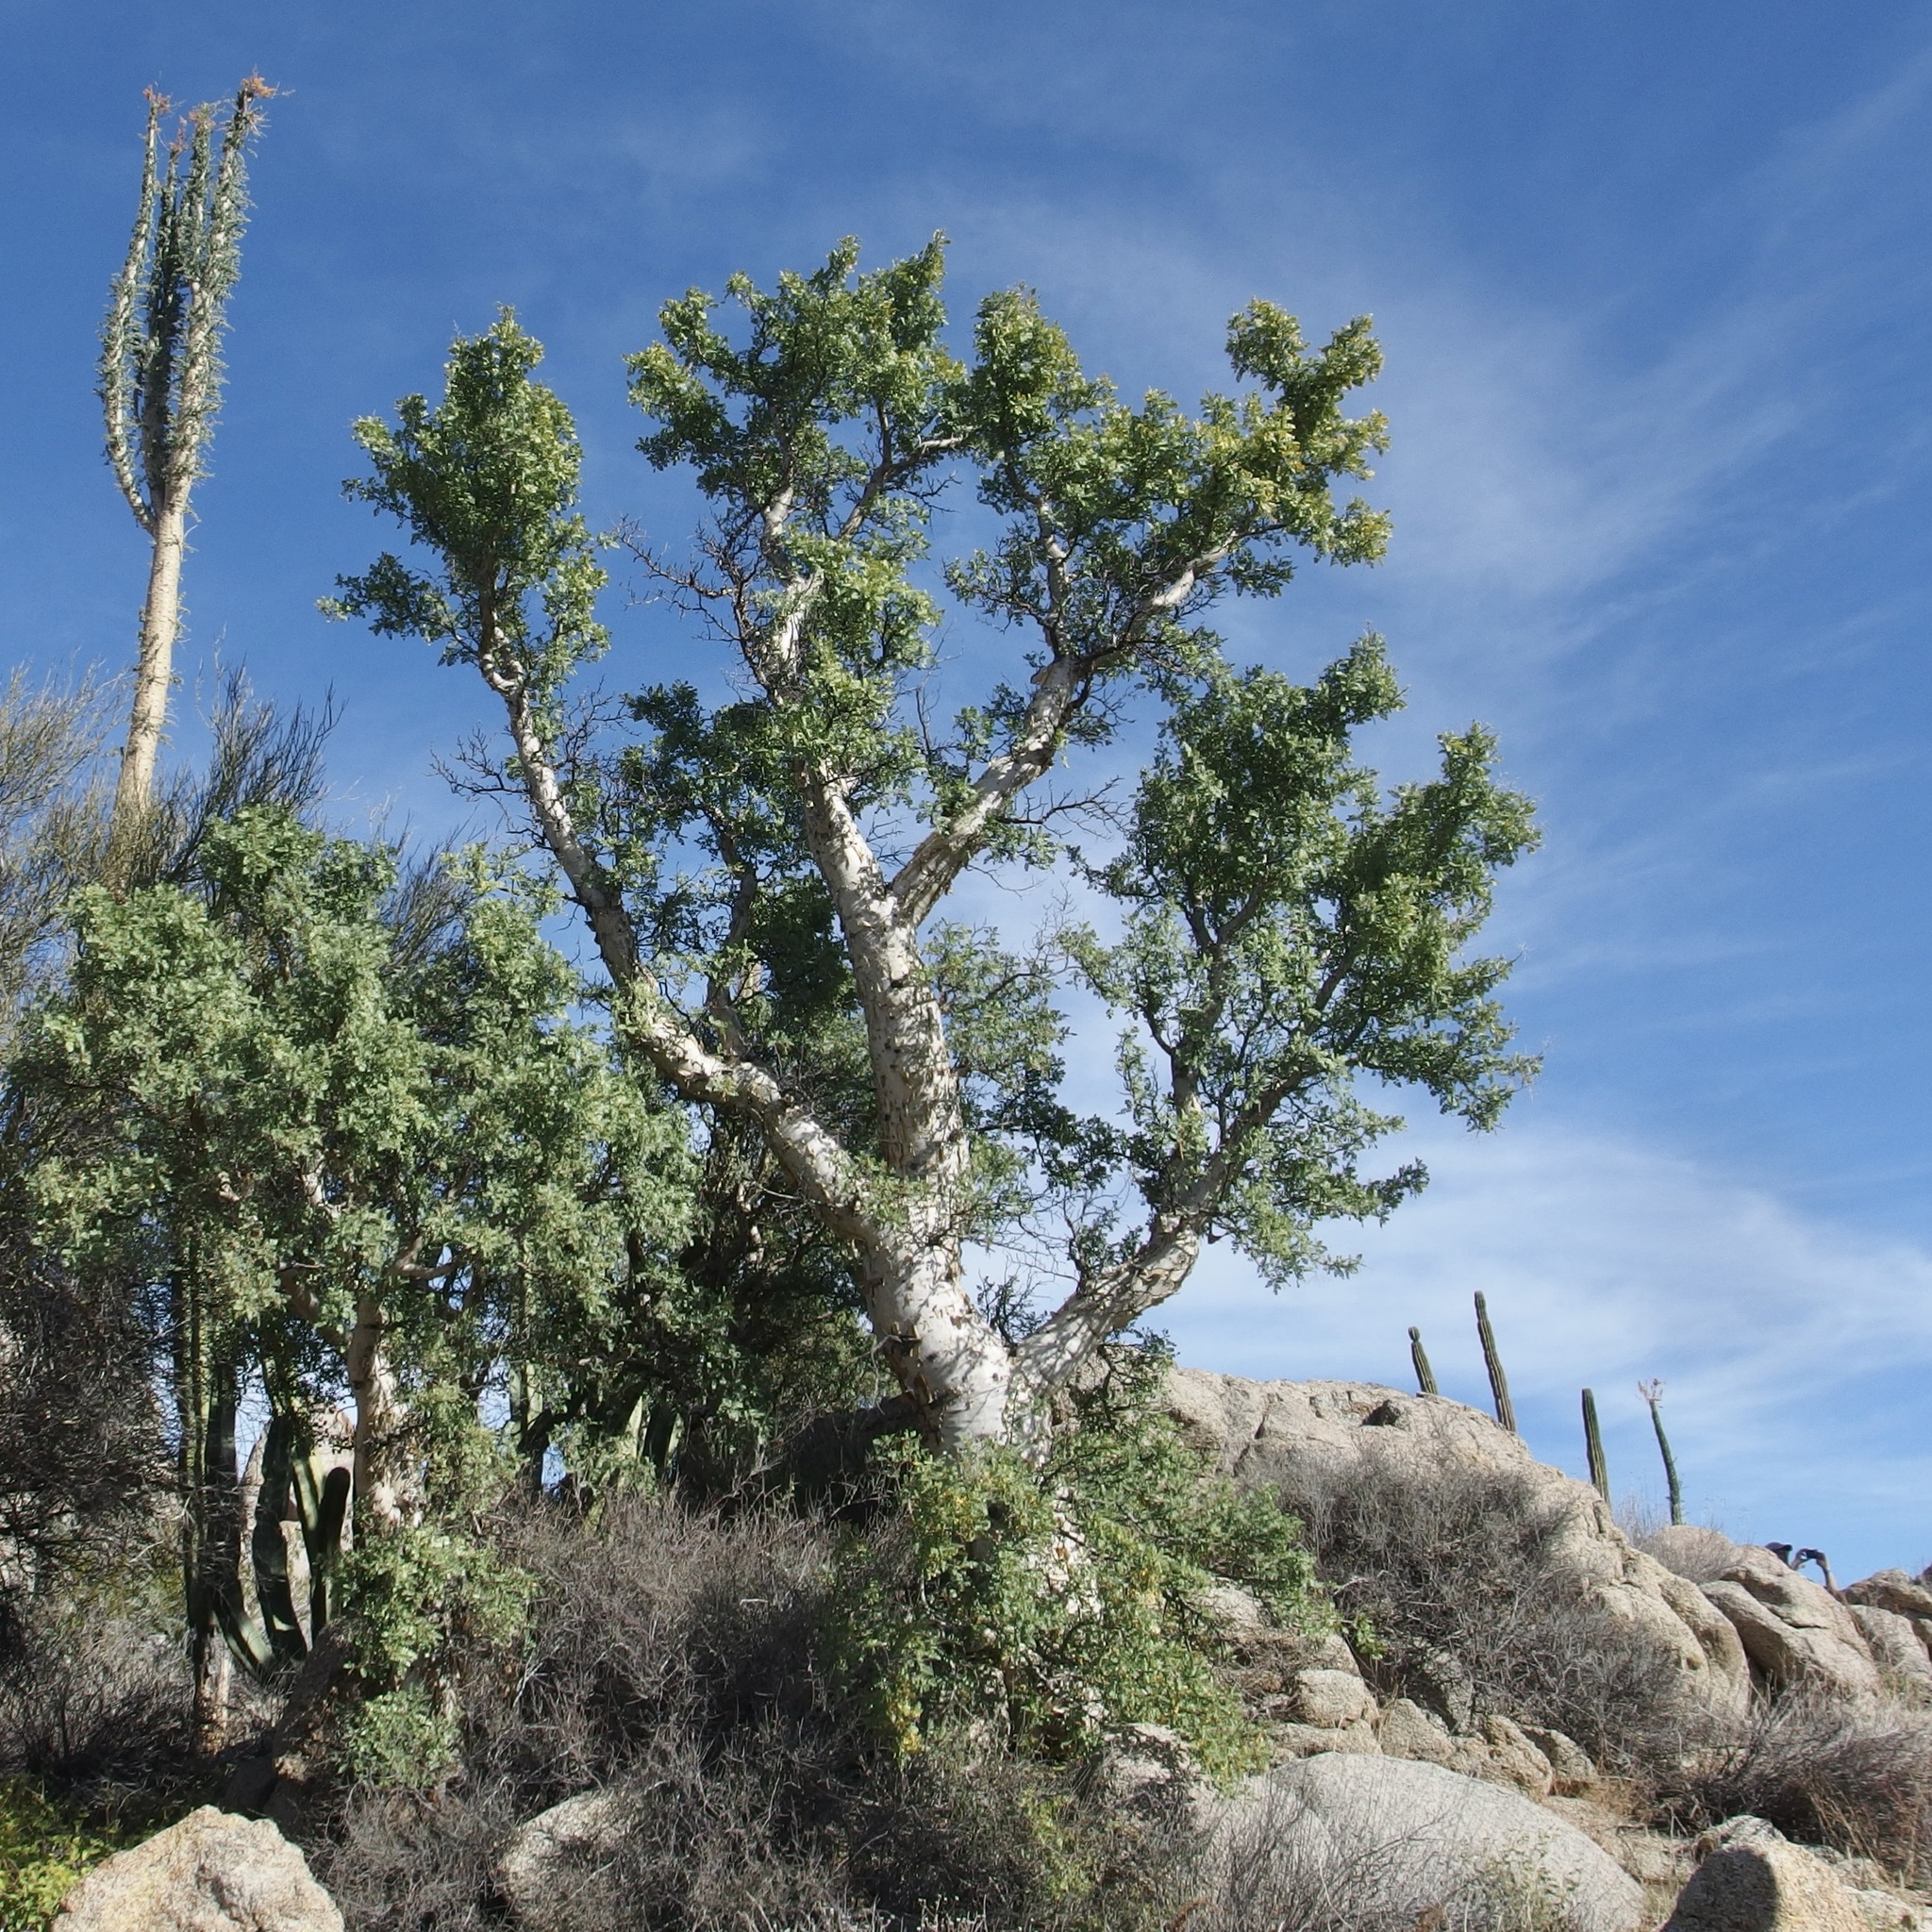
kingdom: Plantae
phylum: Tracheophyta
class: Magnoliopsida
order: Sapindales
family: Anacardiaceae
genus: Pachycormus
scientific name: Pachycormus discolor
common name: Succulent elephant trees
